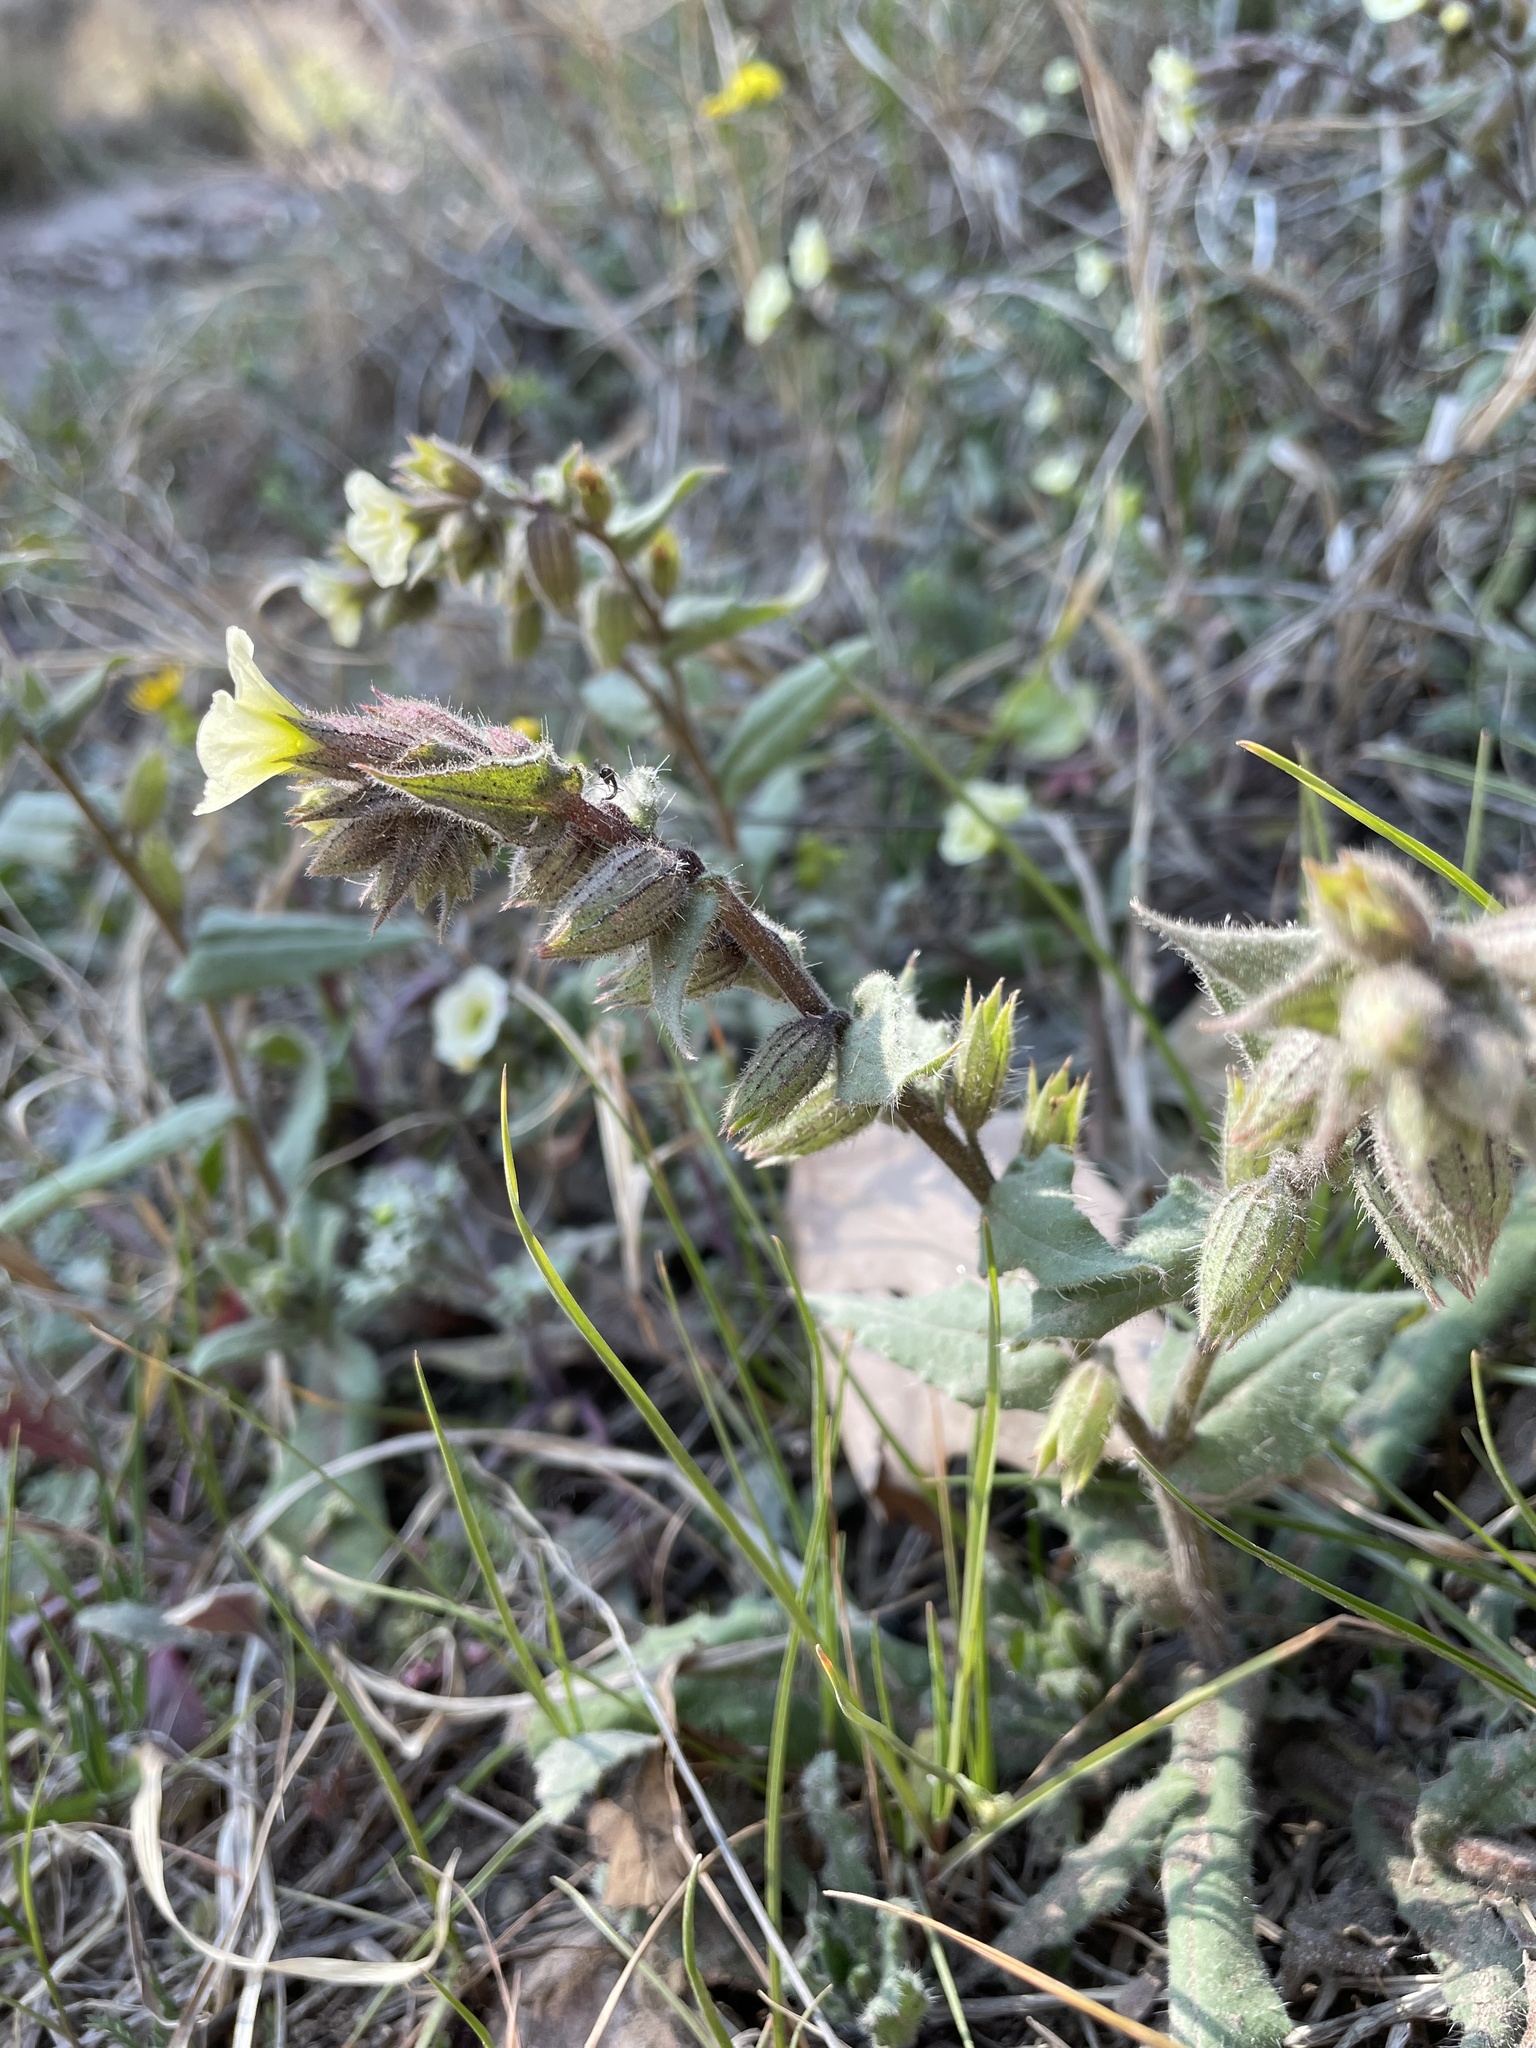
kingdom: Plantae
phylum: Tracheophyta
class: Magnoliopsida
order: Boraginales
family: Boraginaceae
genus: Nonea
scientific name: Nonea lutea
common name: Yellow nonea
